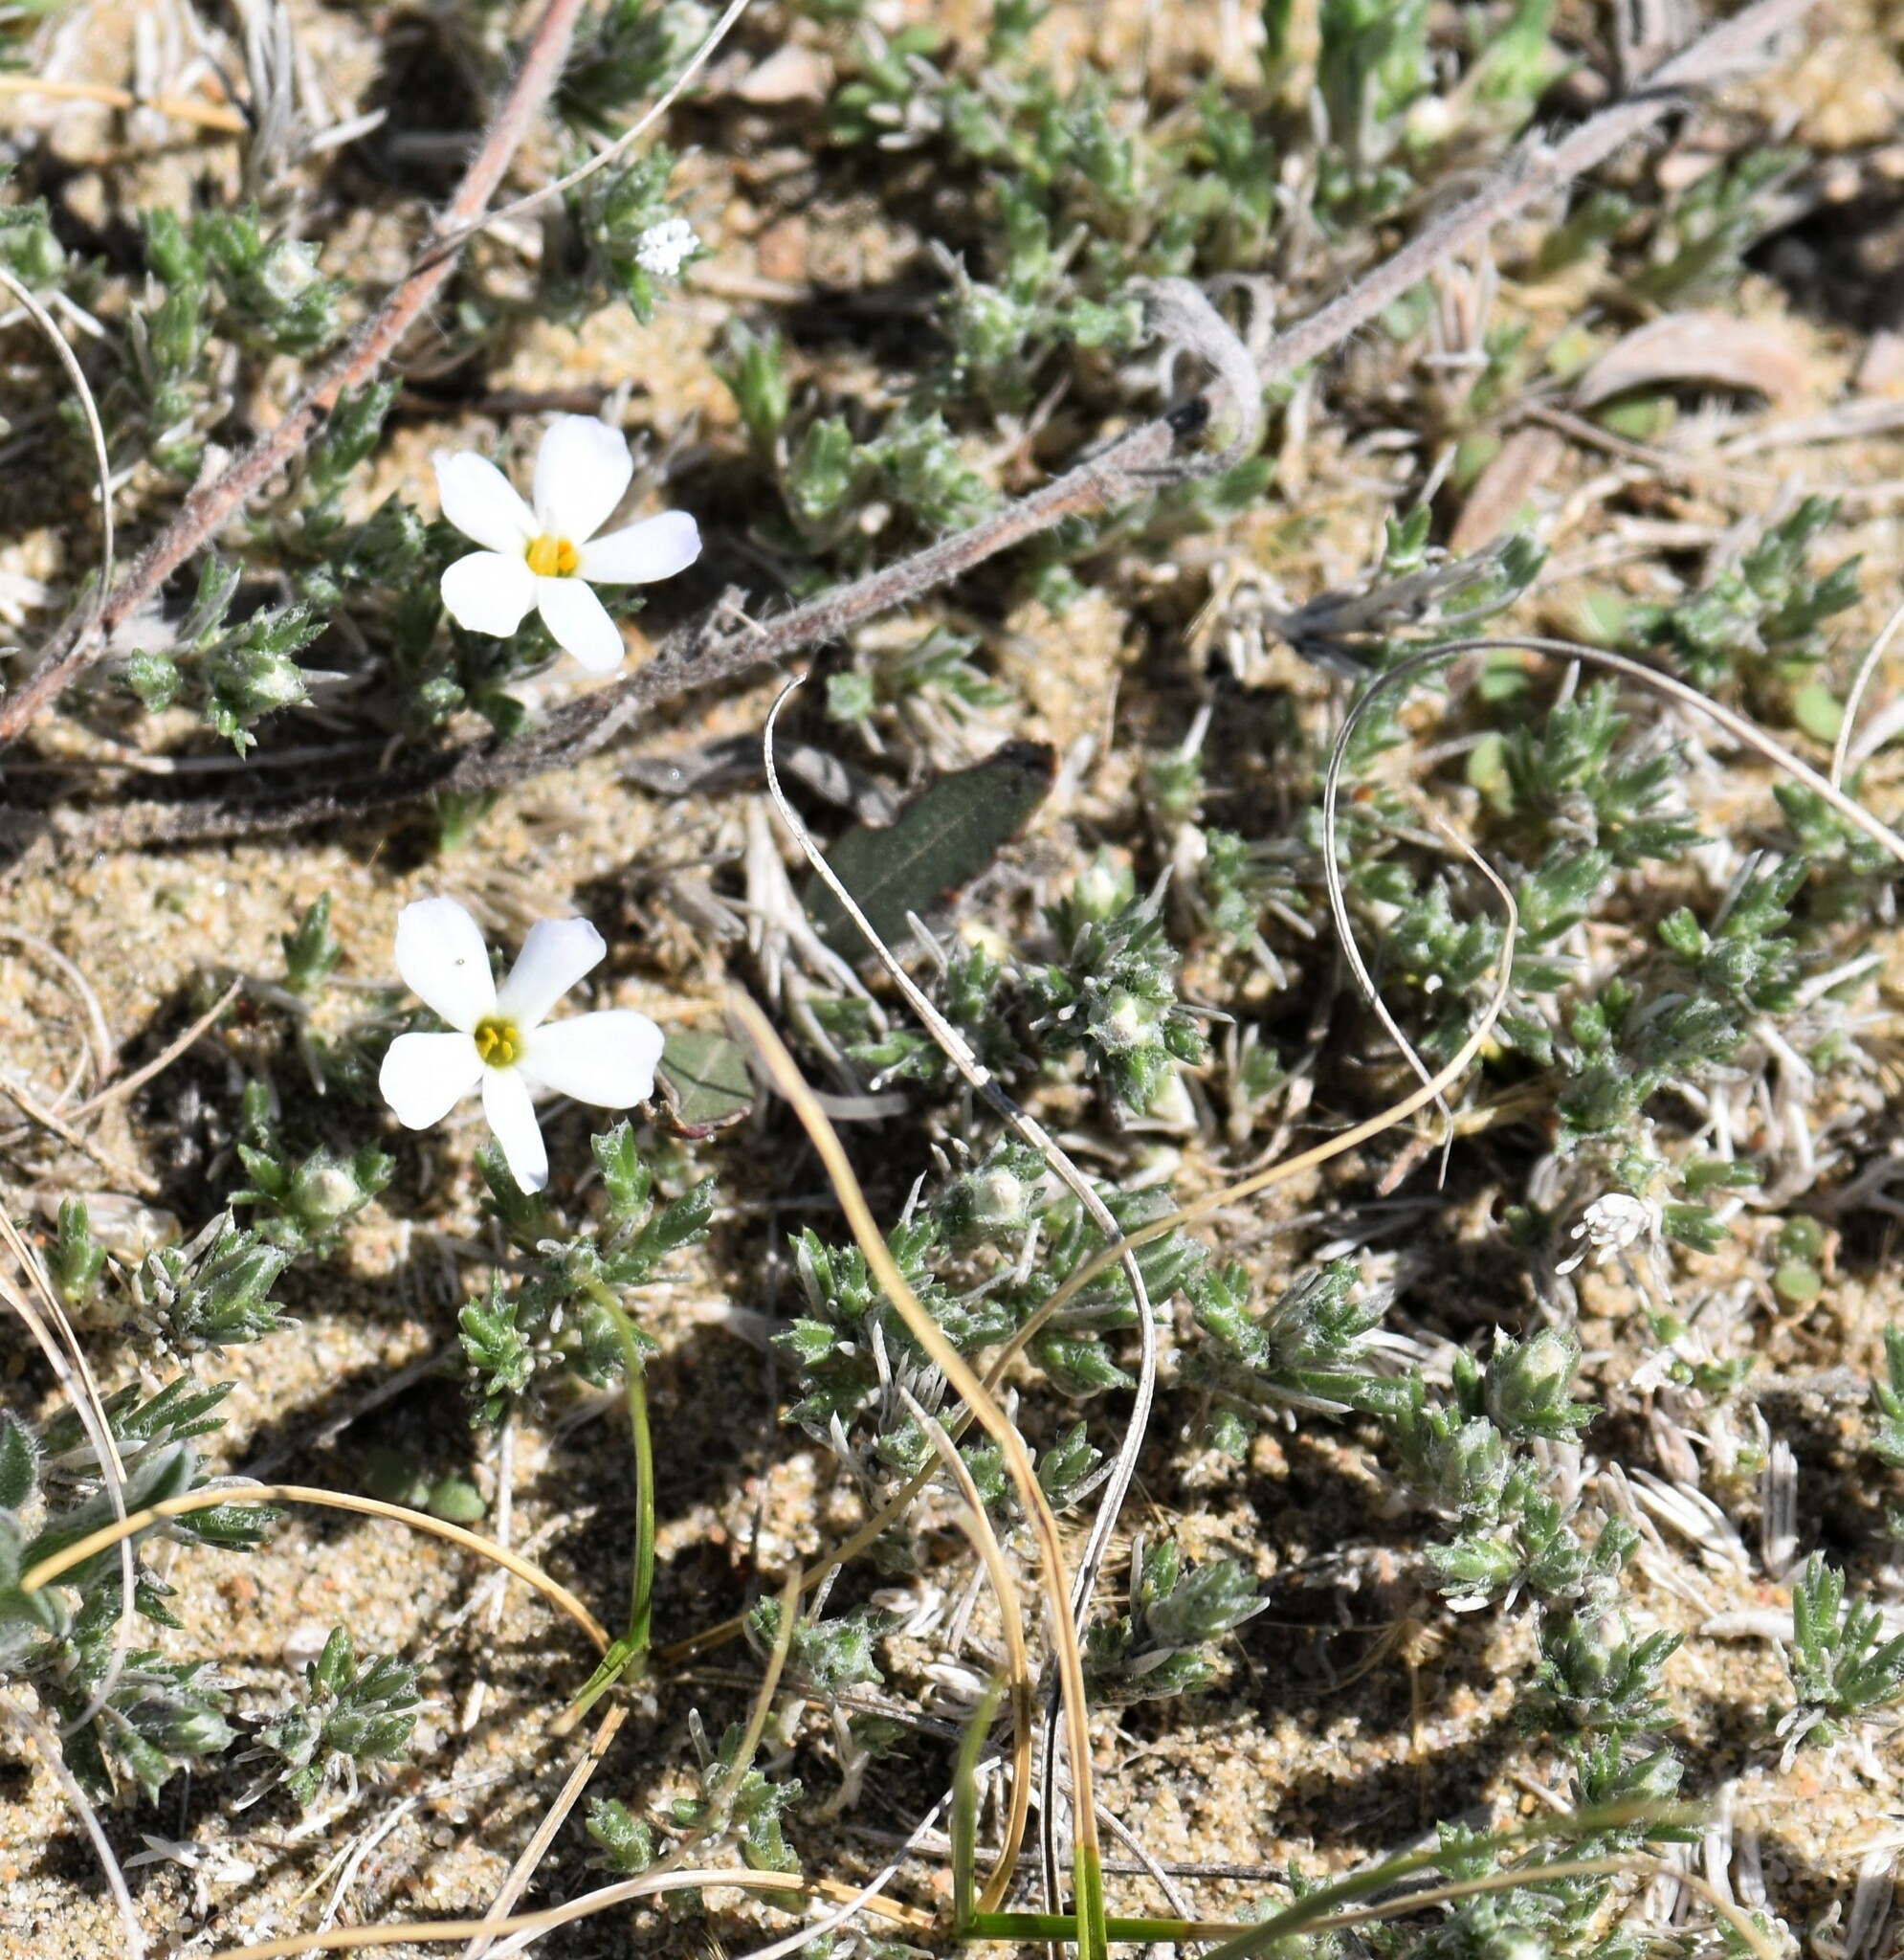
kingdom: Plantae
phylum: Tracheophyta
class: Magnoliopsida
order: Ericales
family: Polemoniaceae
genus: Phlox
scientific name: Phlox hoodii
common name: Moss phlox
